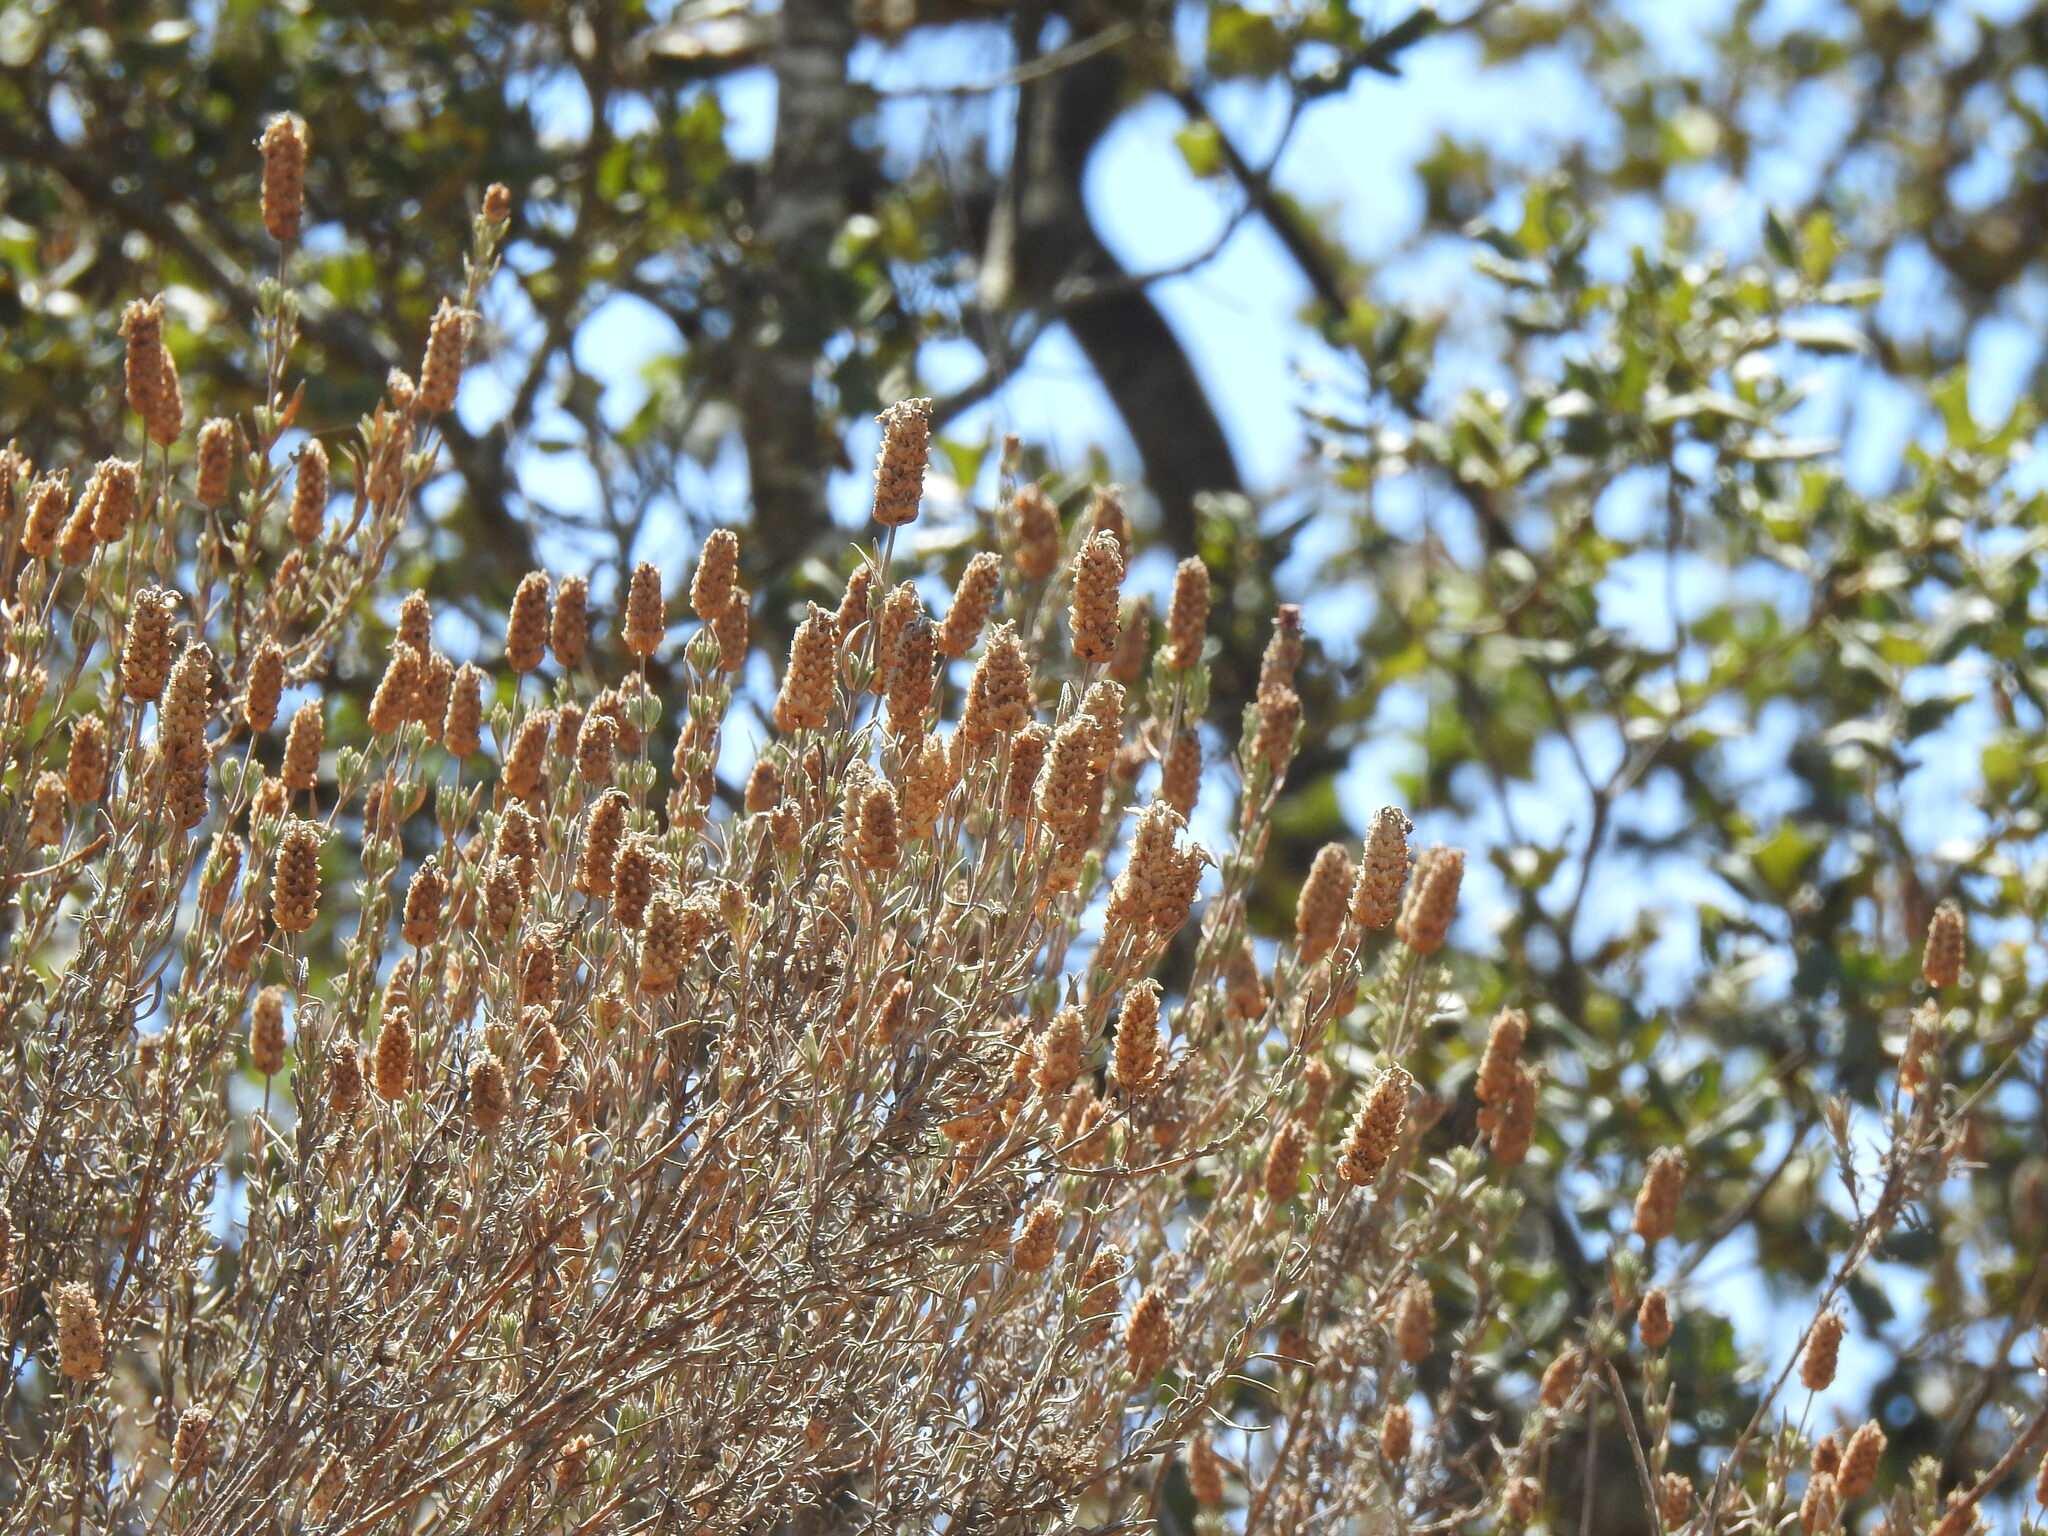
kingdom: Plantae
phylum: Tracheophyta
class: Magnoliopsida
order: Lamiales
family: Lamiaceae
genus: Lavandula
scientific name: Lavandula stoechas
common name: French lavender
